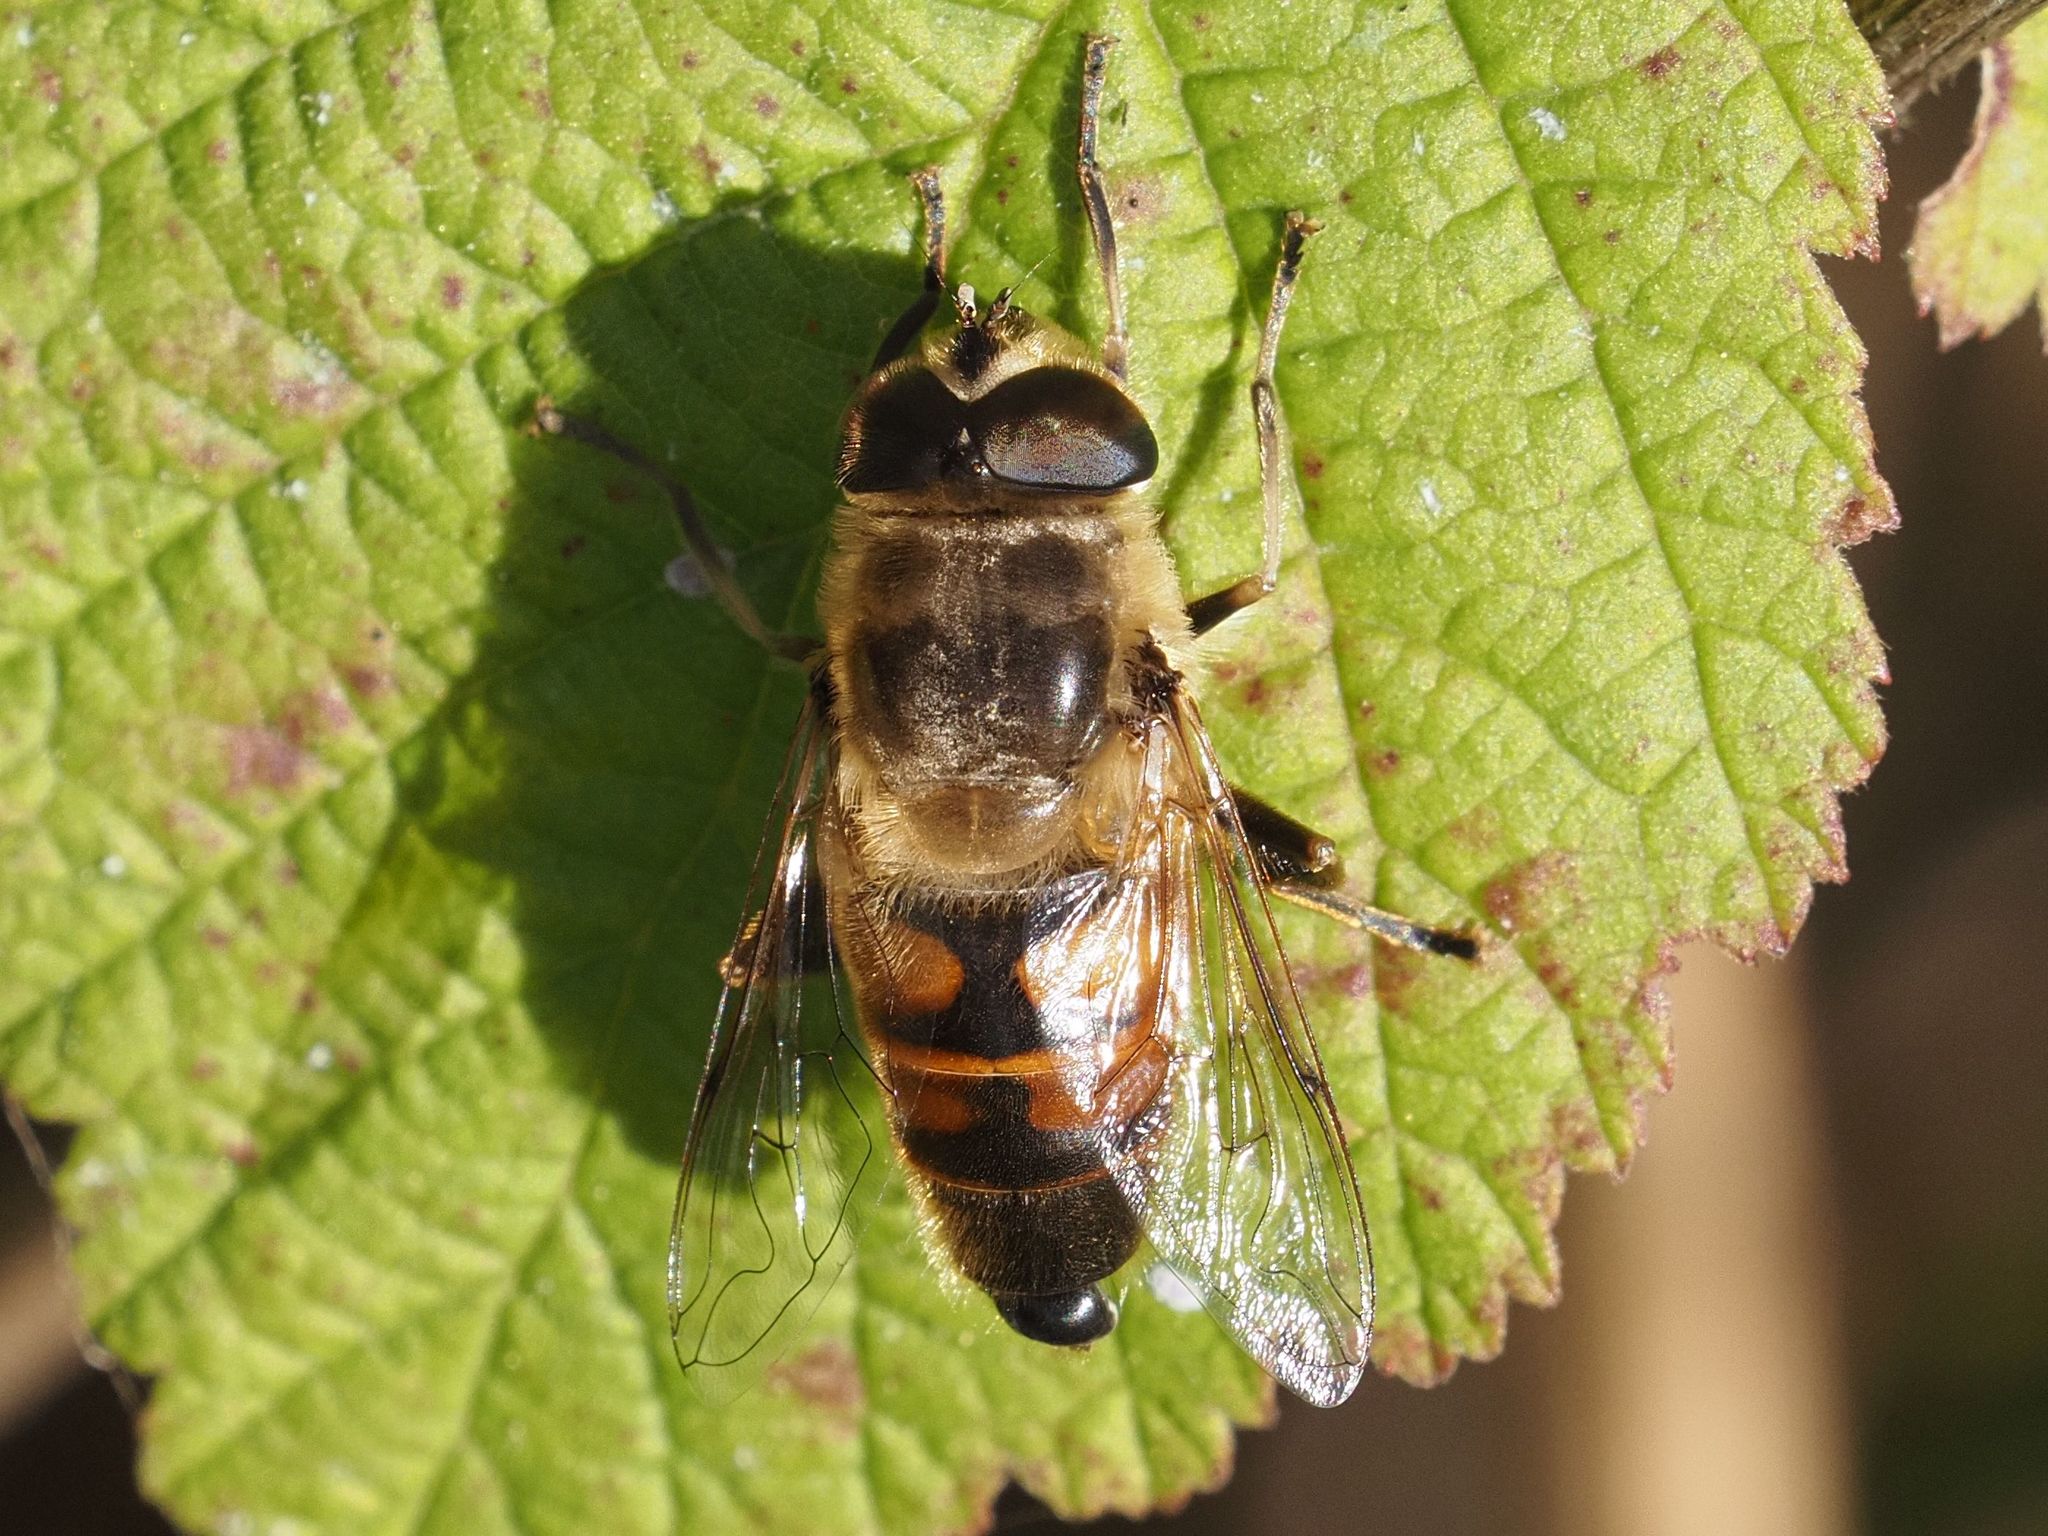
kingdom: Animalia
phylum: Arthropoda
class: Insecta
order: Diptera
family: Syrphidae
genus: Eristalis
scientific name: Eristalis tenax
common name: Drone fly
